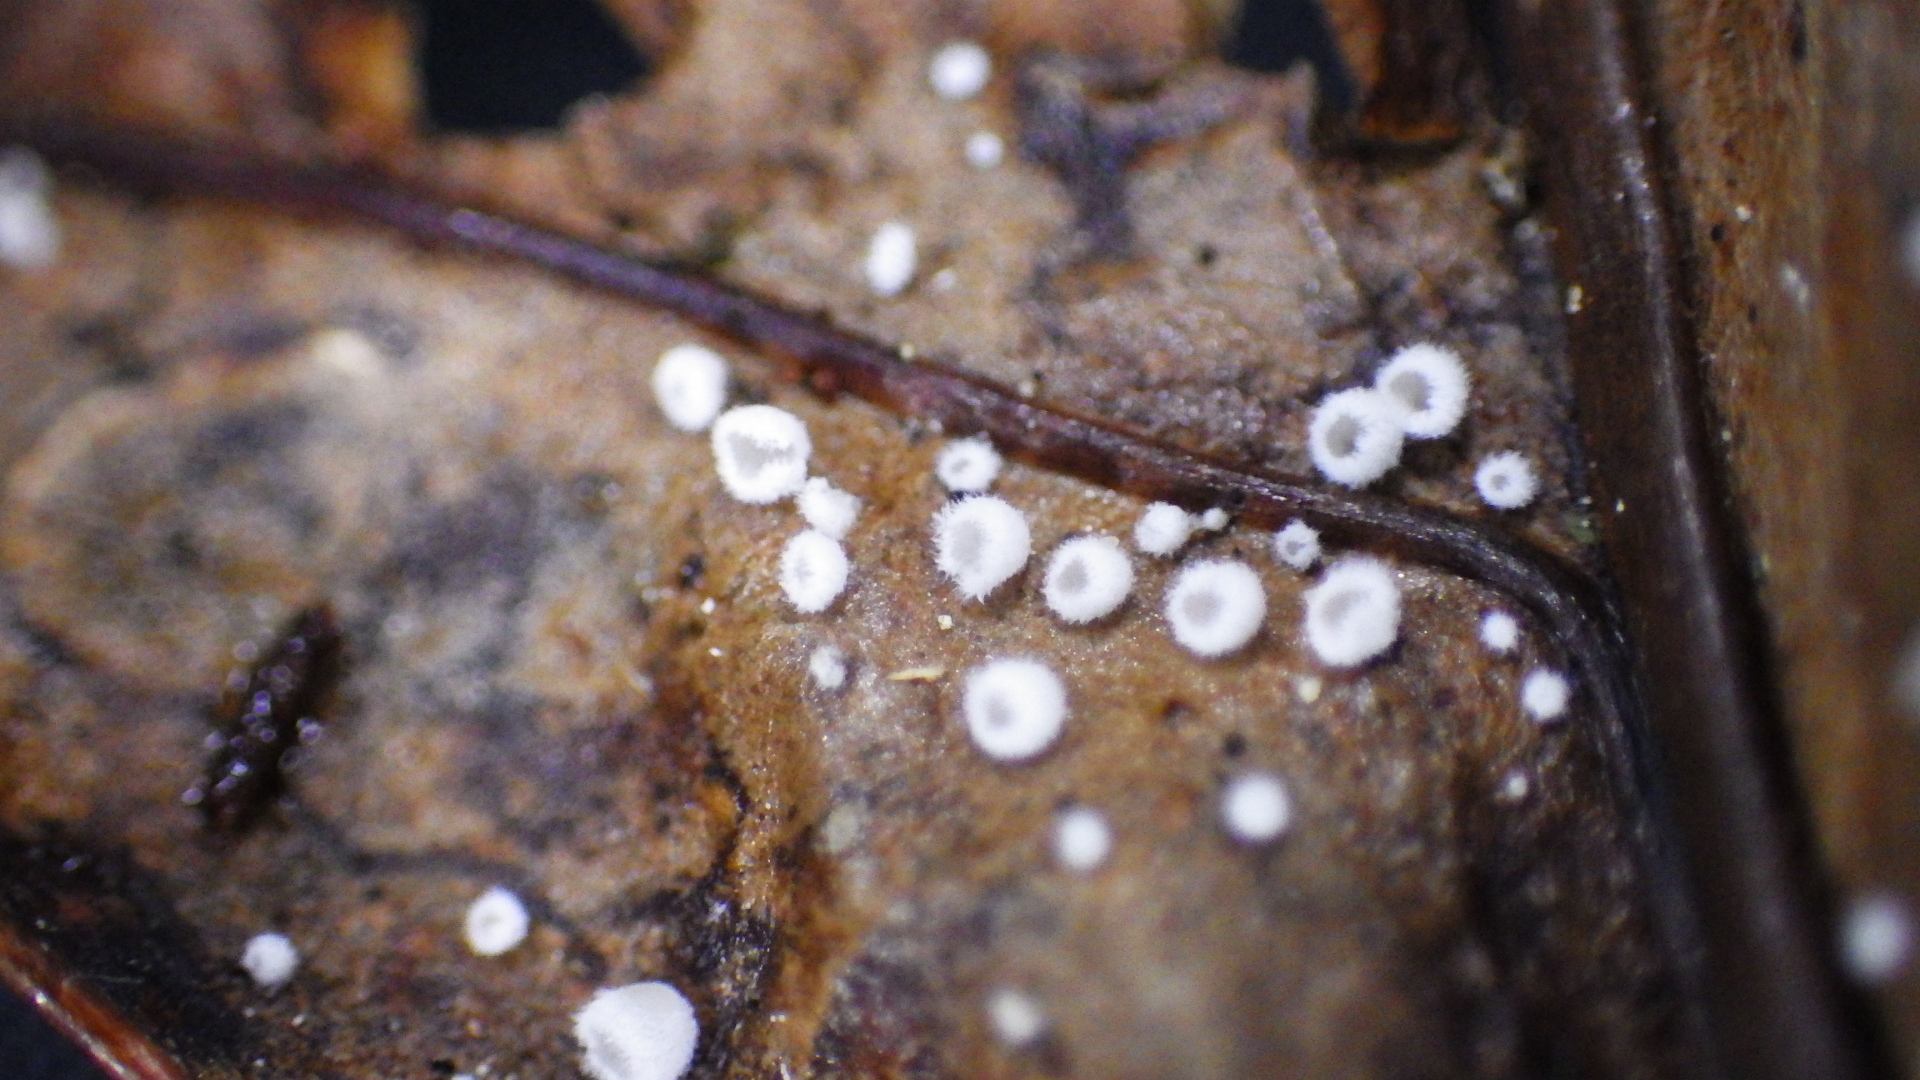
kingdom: Fungi
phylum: Basidiomycota
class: Agaricomycetes
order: Agaricales
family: Niaceae
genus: Flagelloscypha
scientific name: Flagelloscypha austrofilicis
